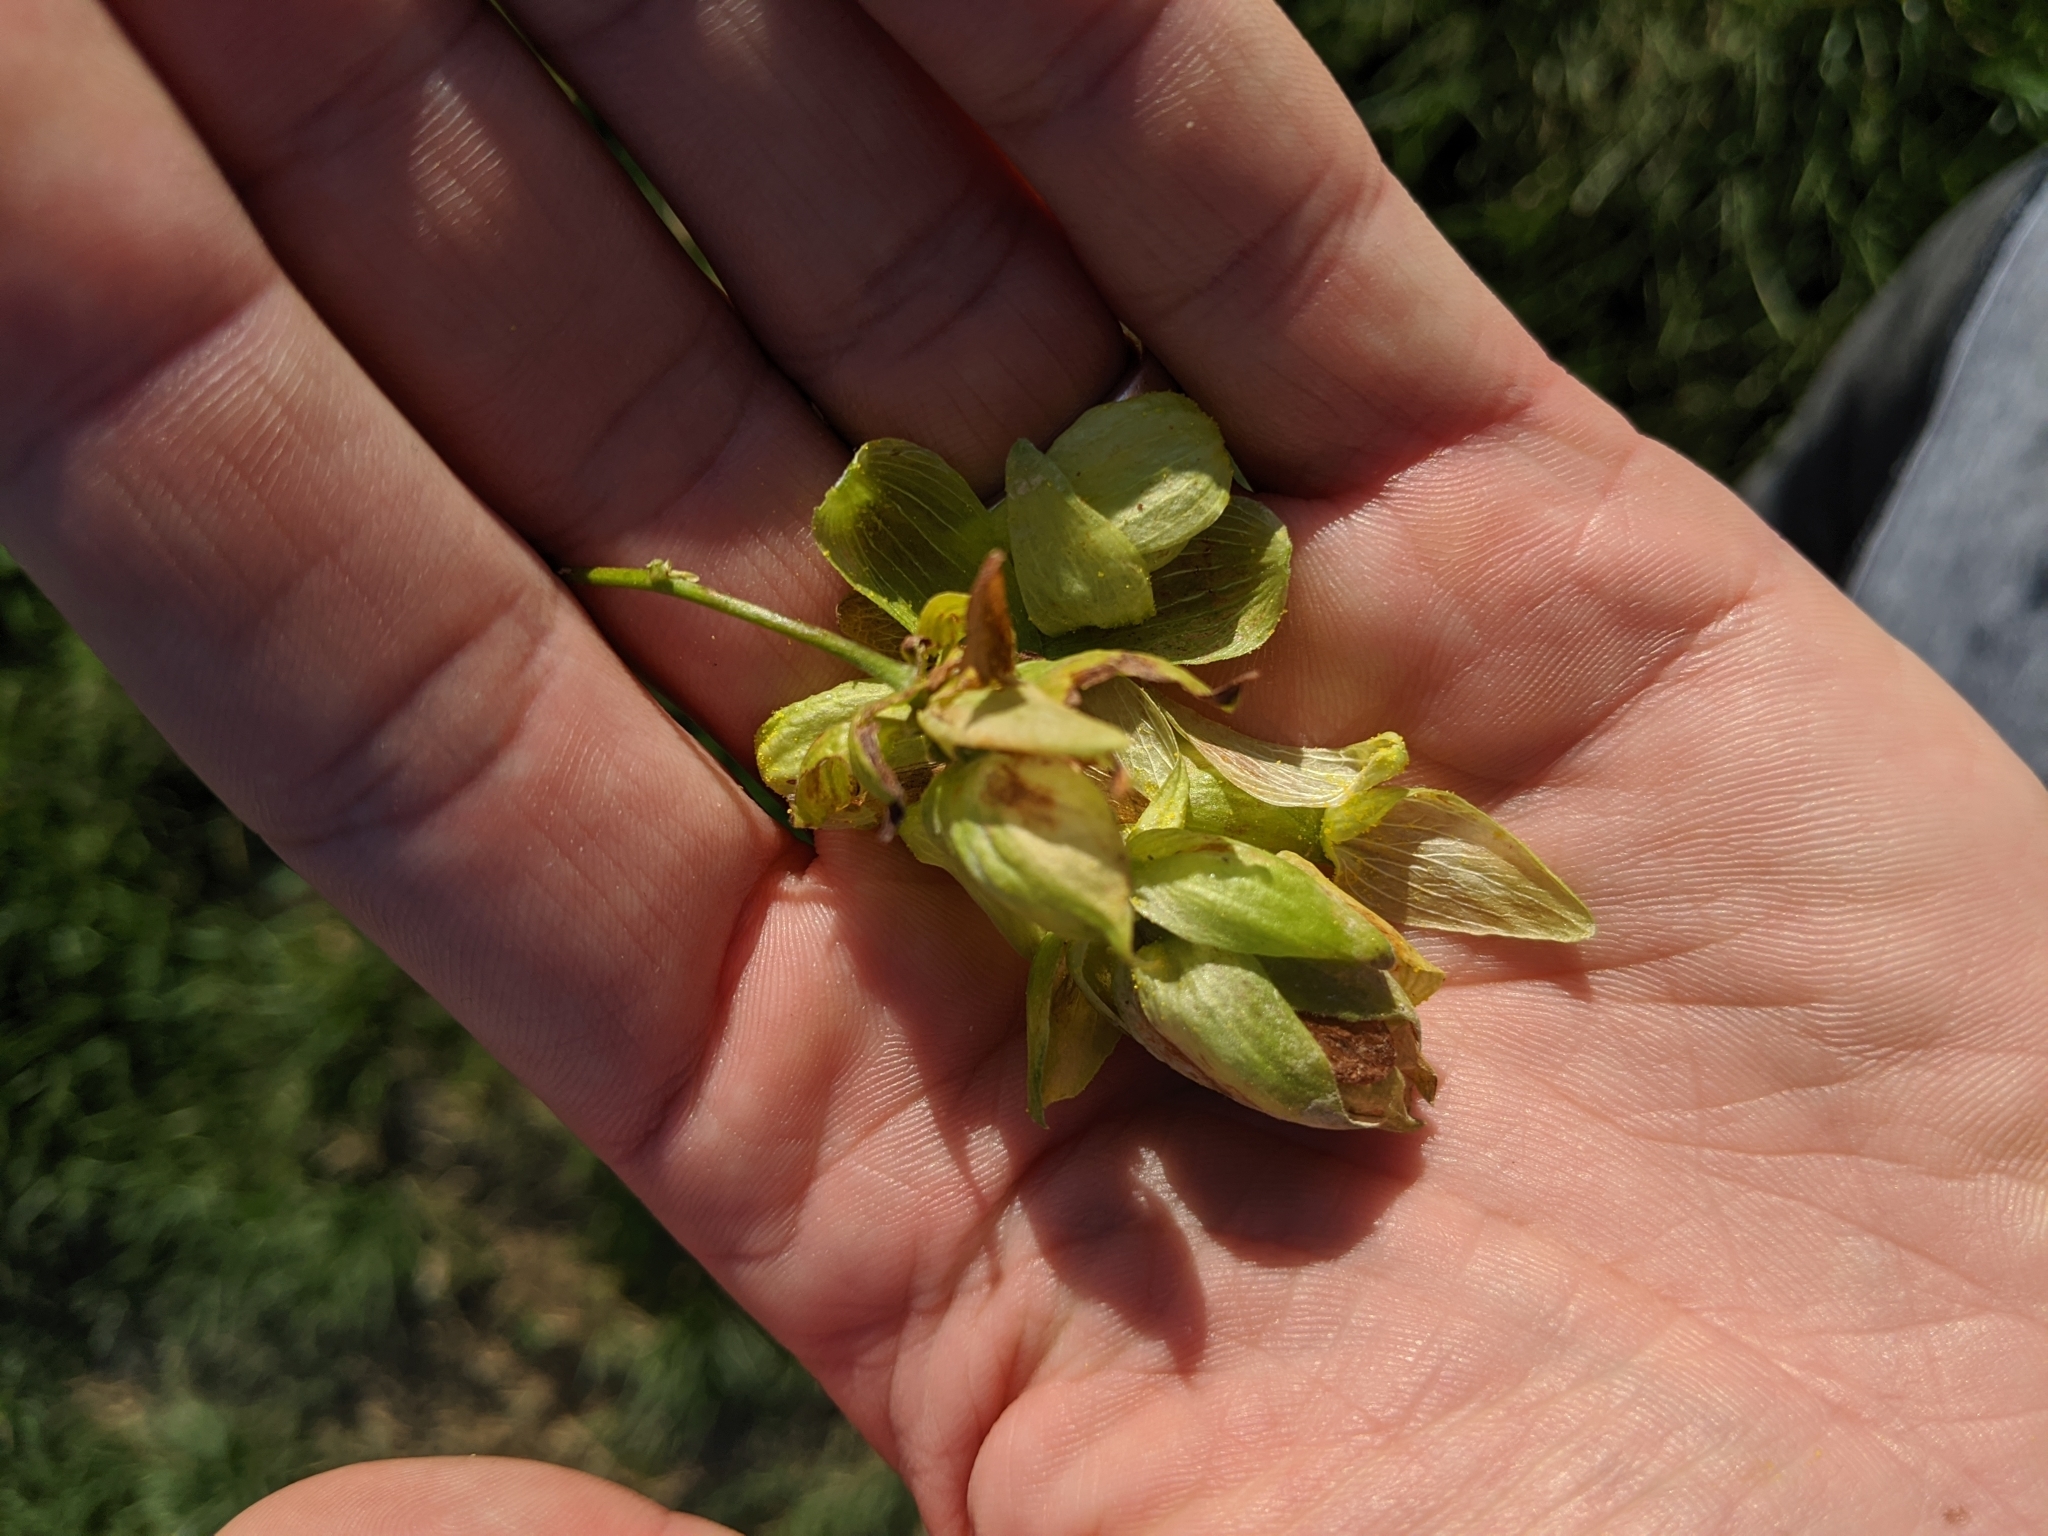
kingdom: Plantae
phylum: Tracheophyta
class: Magnoliopsida
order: Rosales
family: Cannabaceae
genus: Humulus
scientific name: Humulus lupulus
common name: Hop
